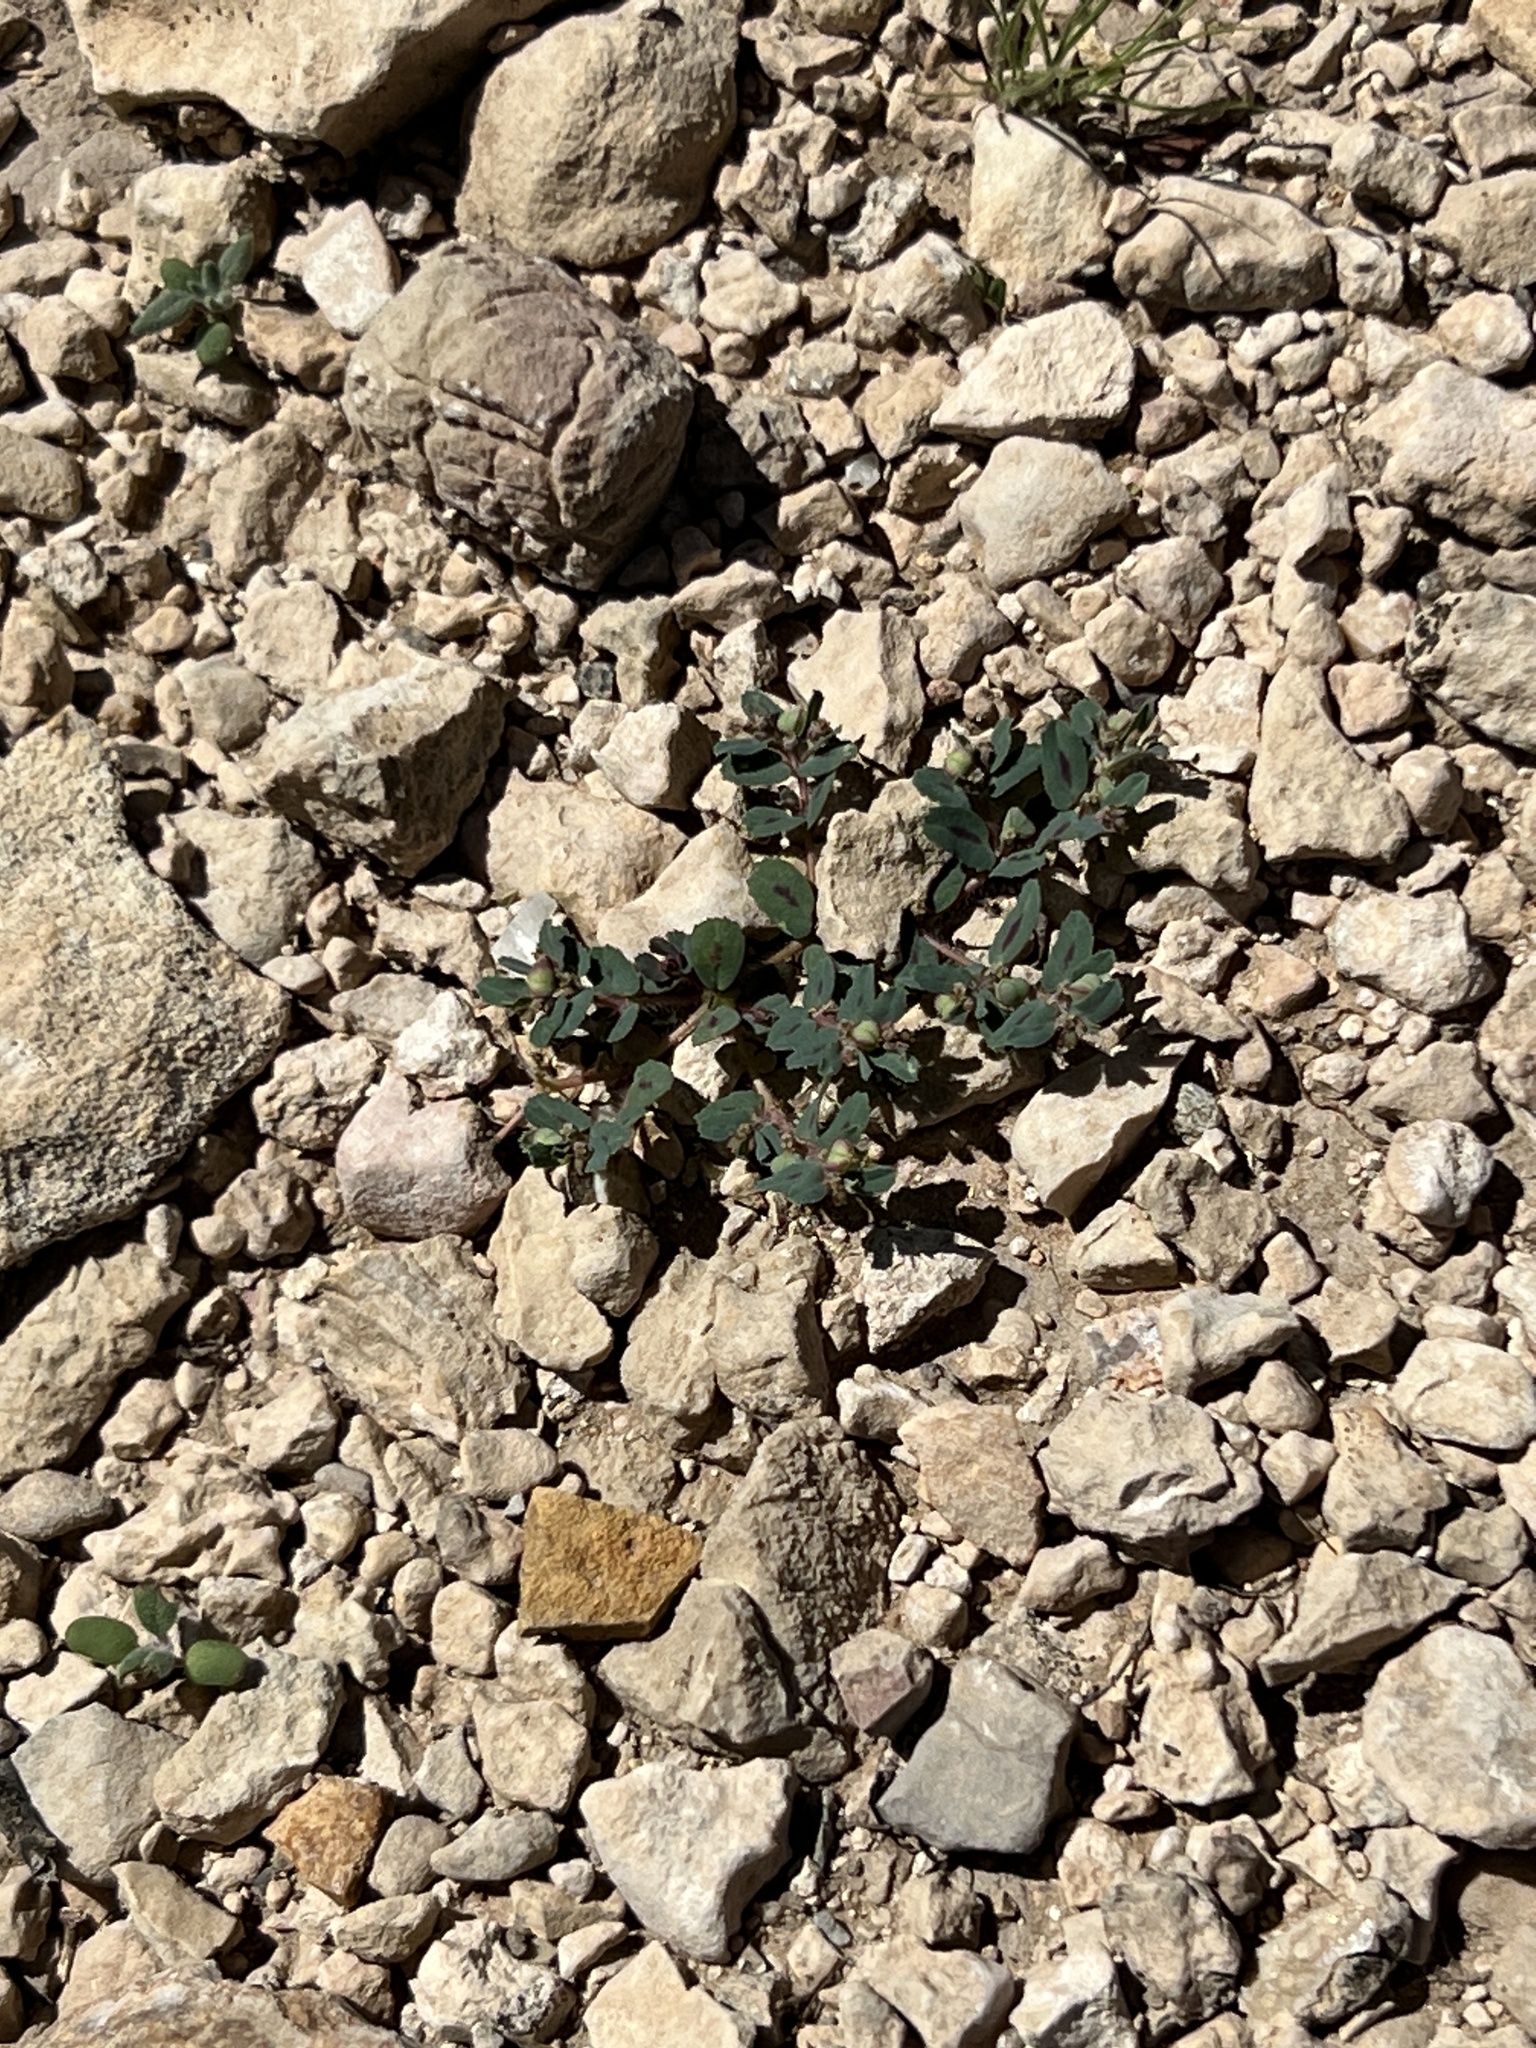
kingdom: Plantae
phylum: Tracheophyta
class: Magnoliopsida
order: Malpighiales
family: Euphorbiaceae
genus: Euphorbia
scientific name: Euphorbia serrula
